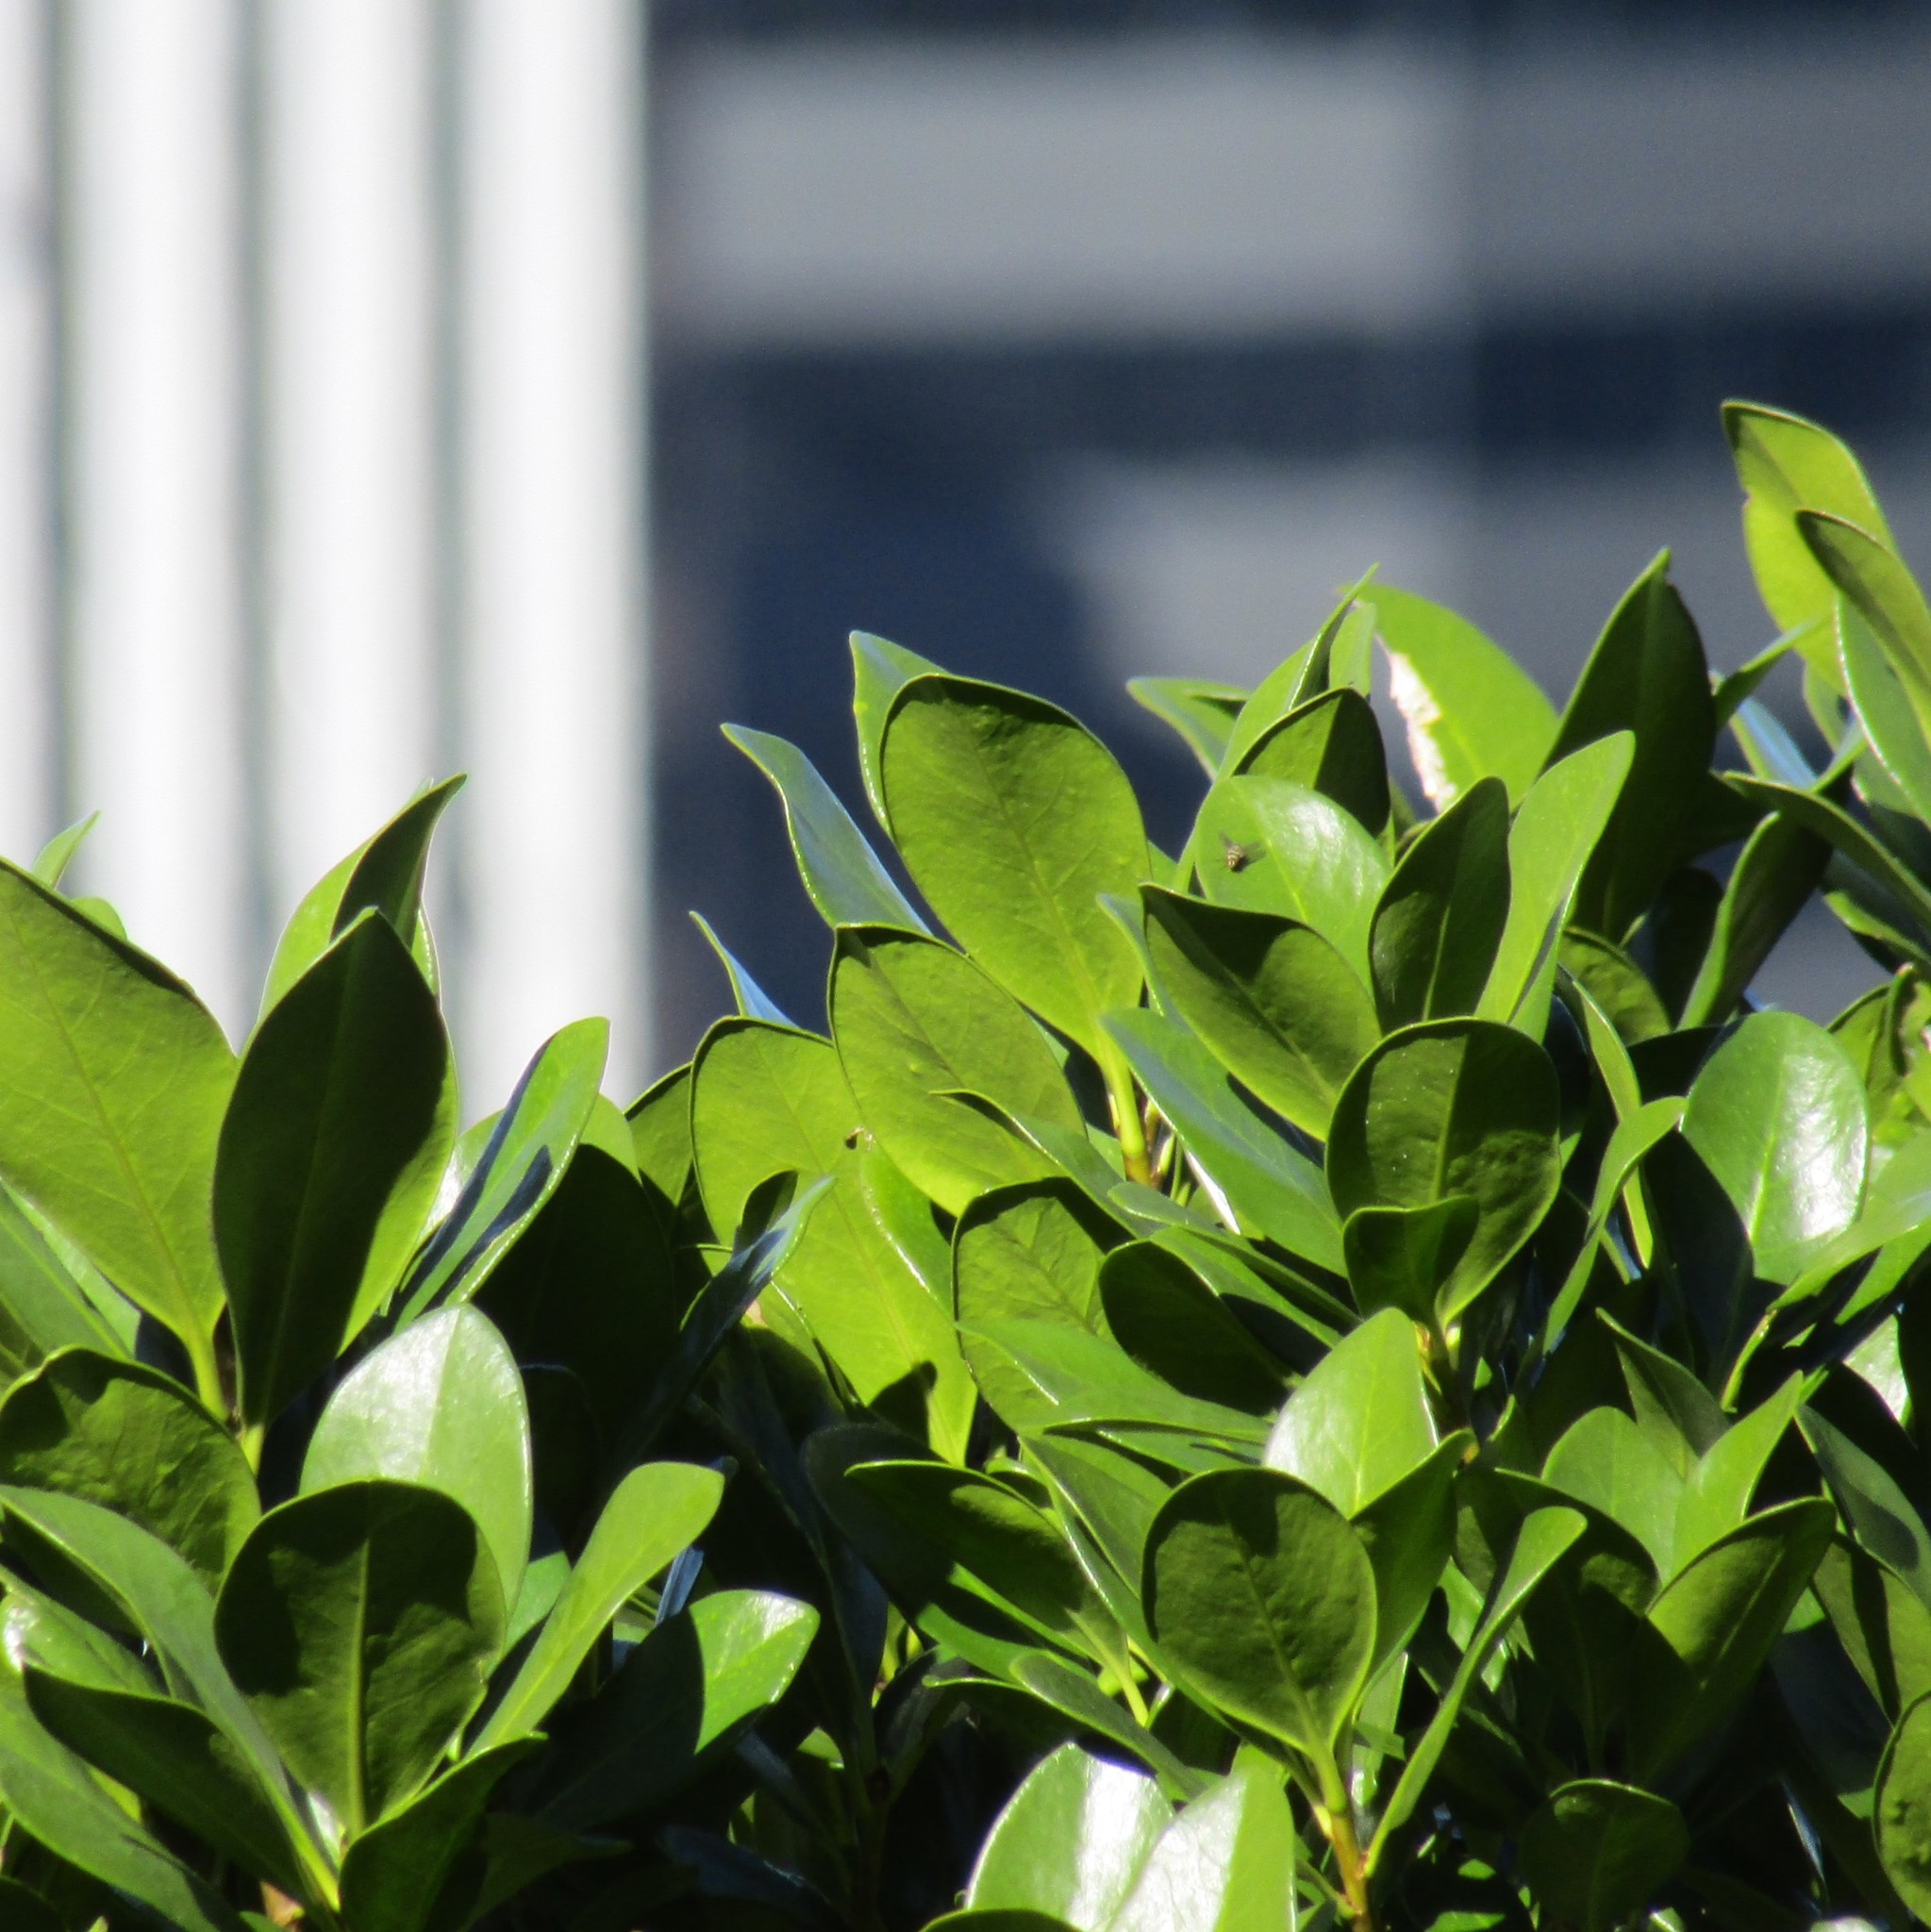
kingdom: Plantae
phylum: Tracheophyta
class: Magnoliopsida
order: Cucurbitales
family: Corynocarpaceae
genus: Corynocarpus
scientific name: Corynocarpus laevigatus
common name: New zealand laurel
